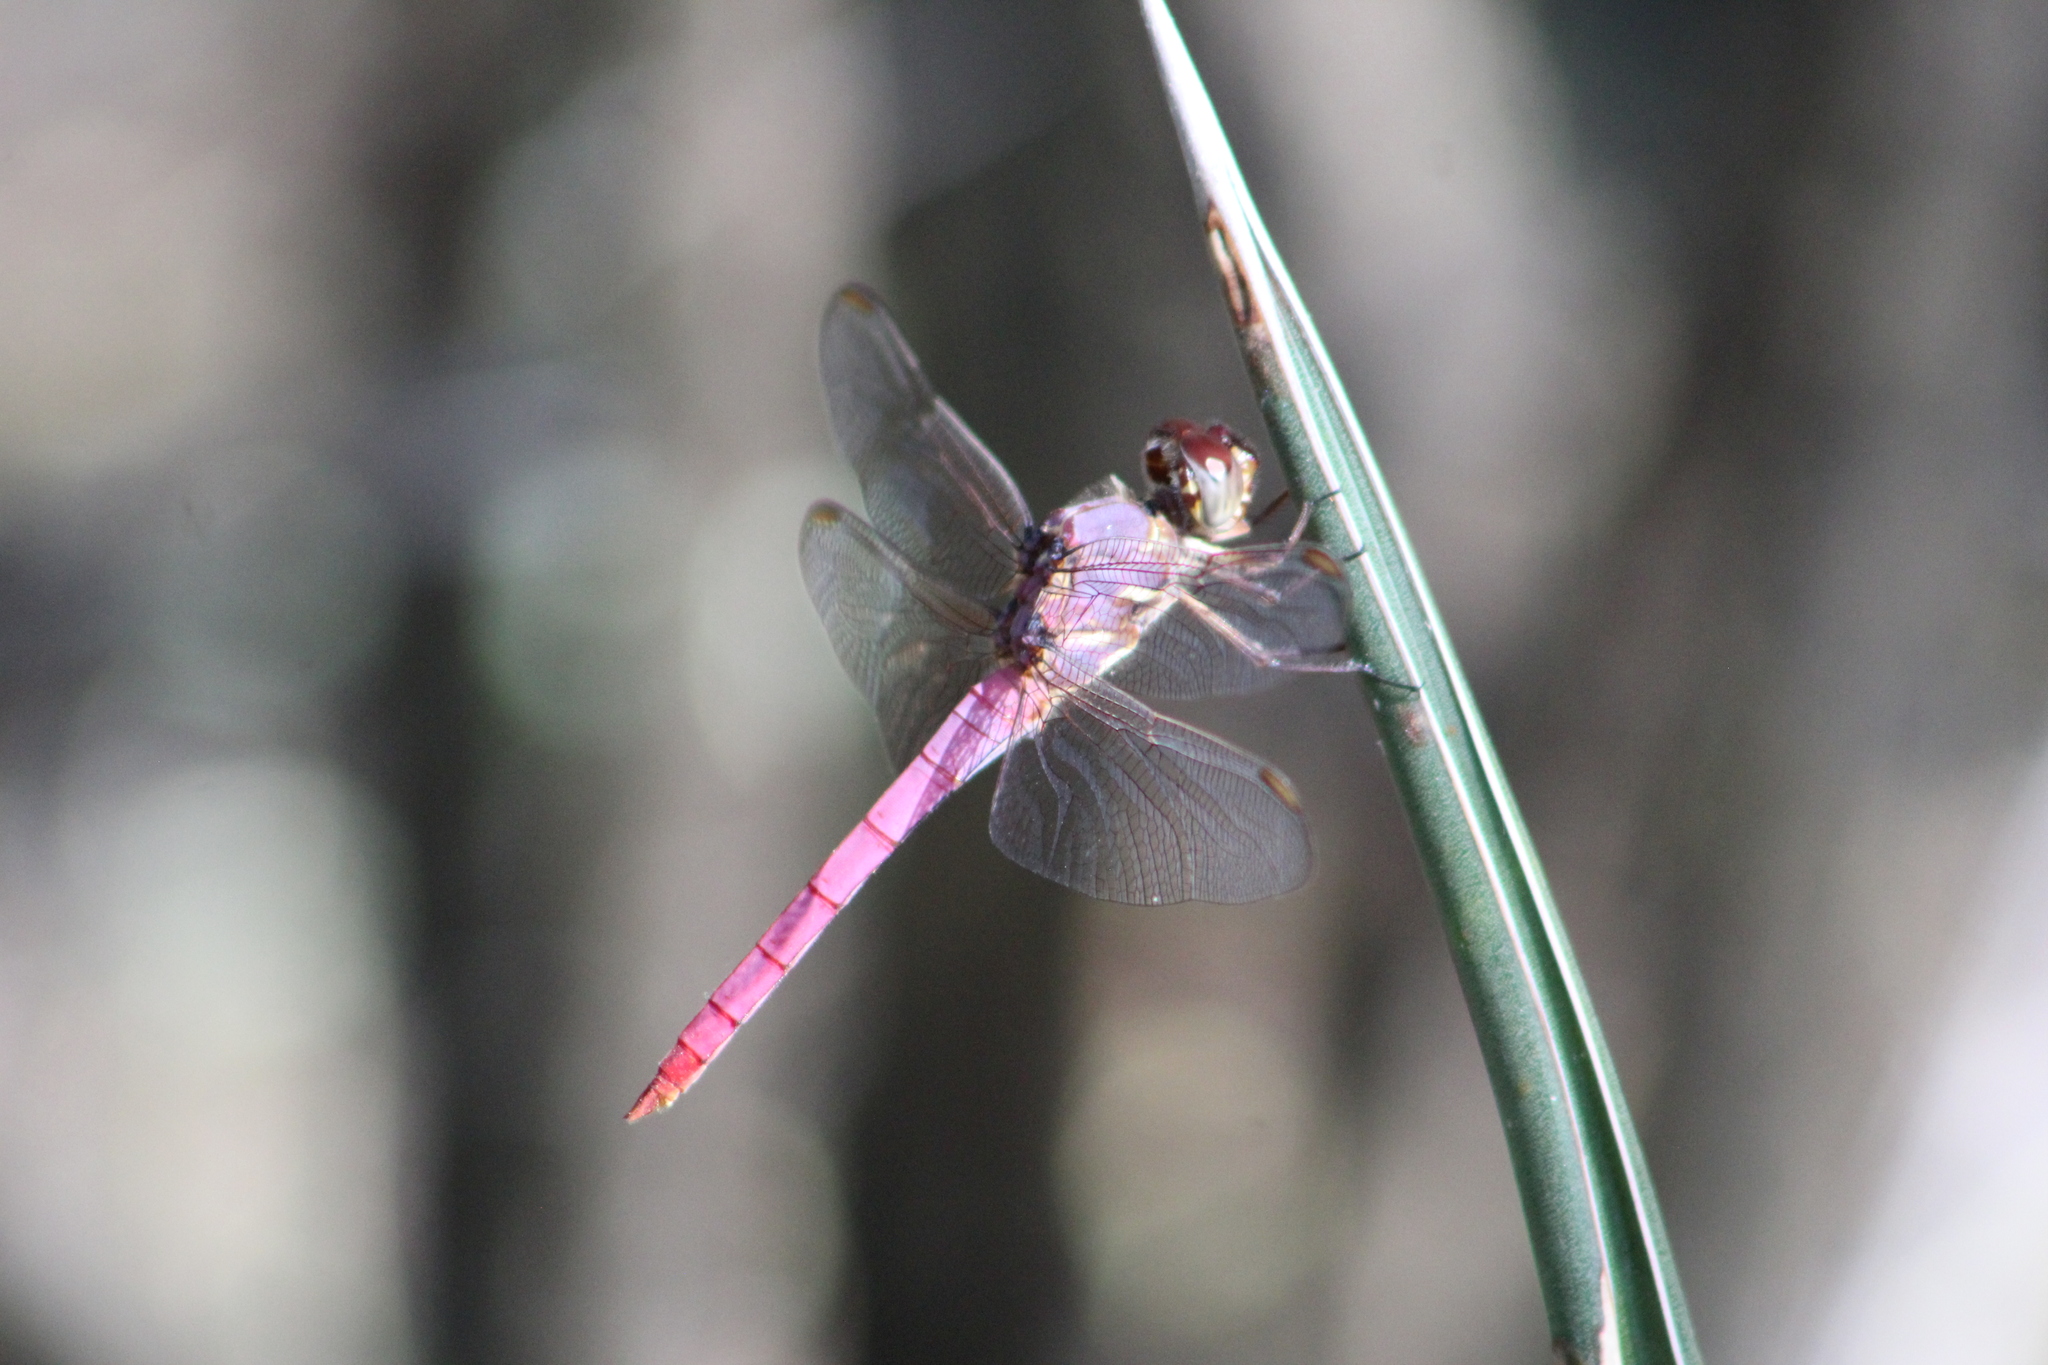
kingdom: Animalia
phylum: Arthropoda
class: Insecta
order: Odonata
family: Libellulidae
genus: Orthemis
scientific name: Orthemis ferruginea
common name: Roseate skimmer
